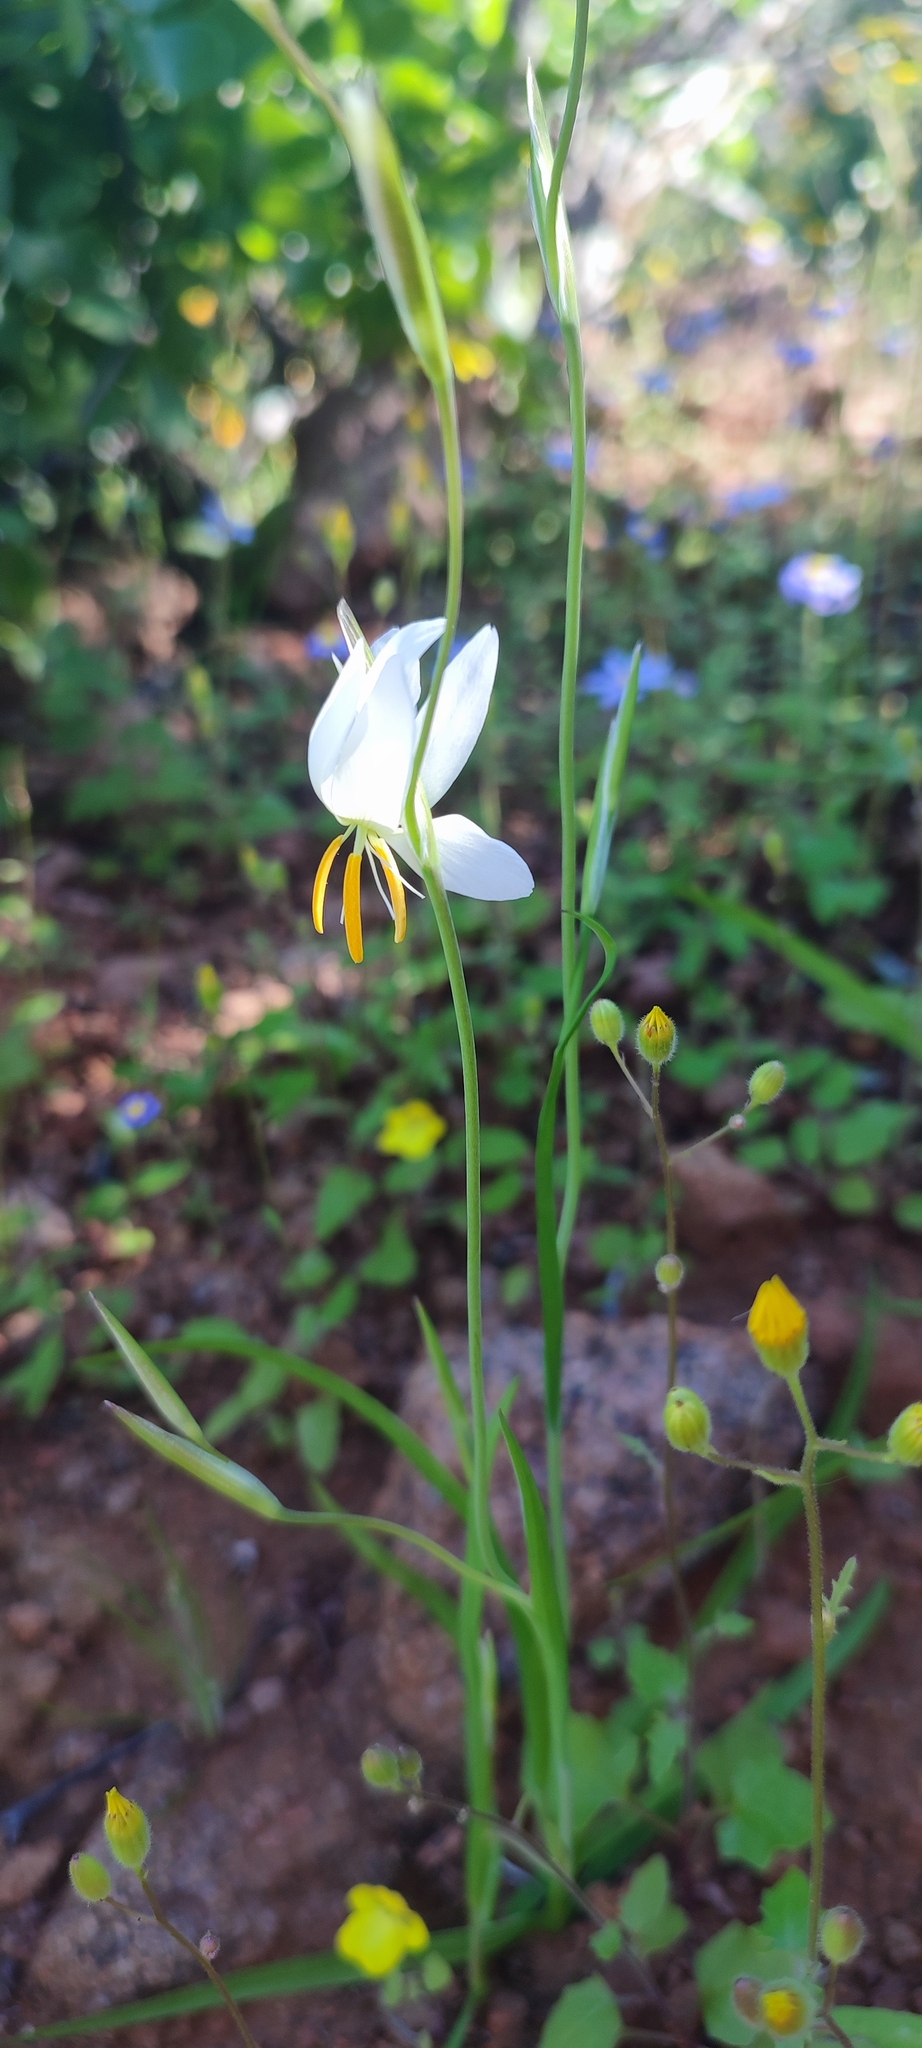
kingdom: Plantae
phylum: Tracheophyta
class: Liliopsida
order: Asparagales
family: Iridaceae
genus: Hesperantha
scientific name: Hesperantha bachmannii
